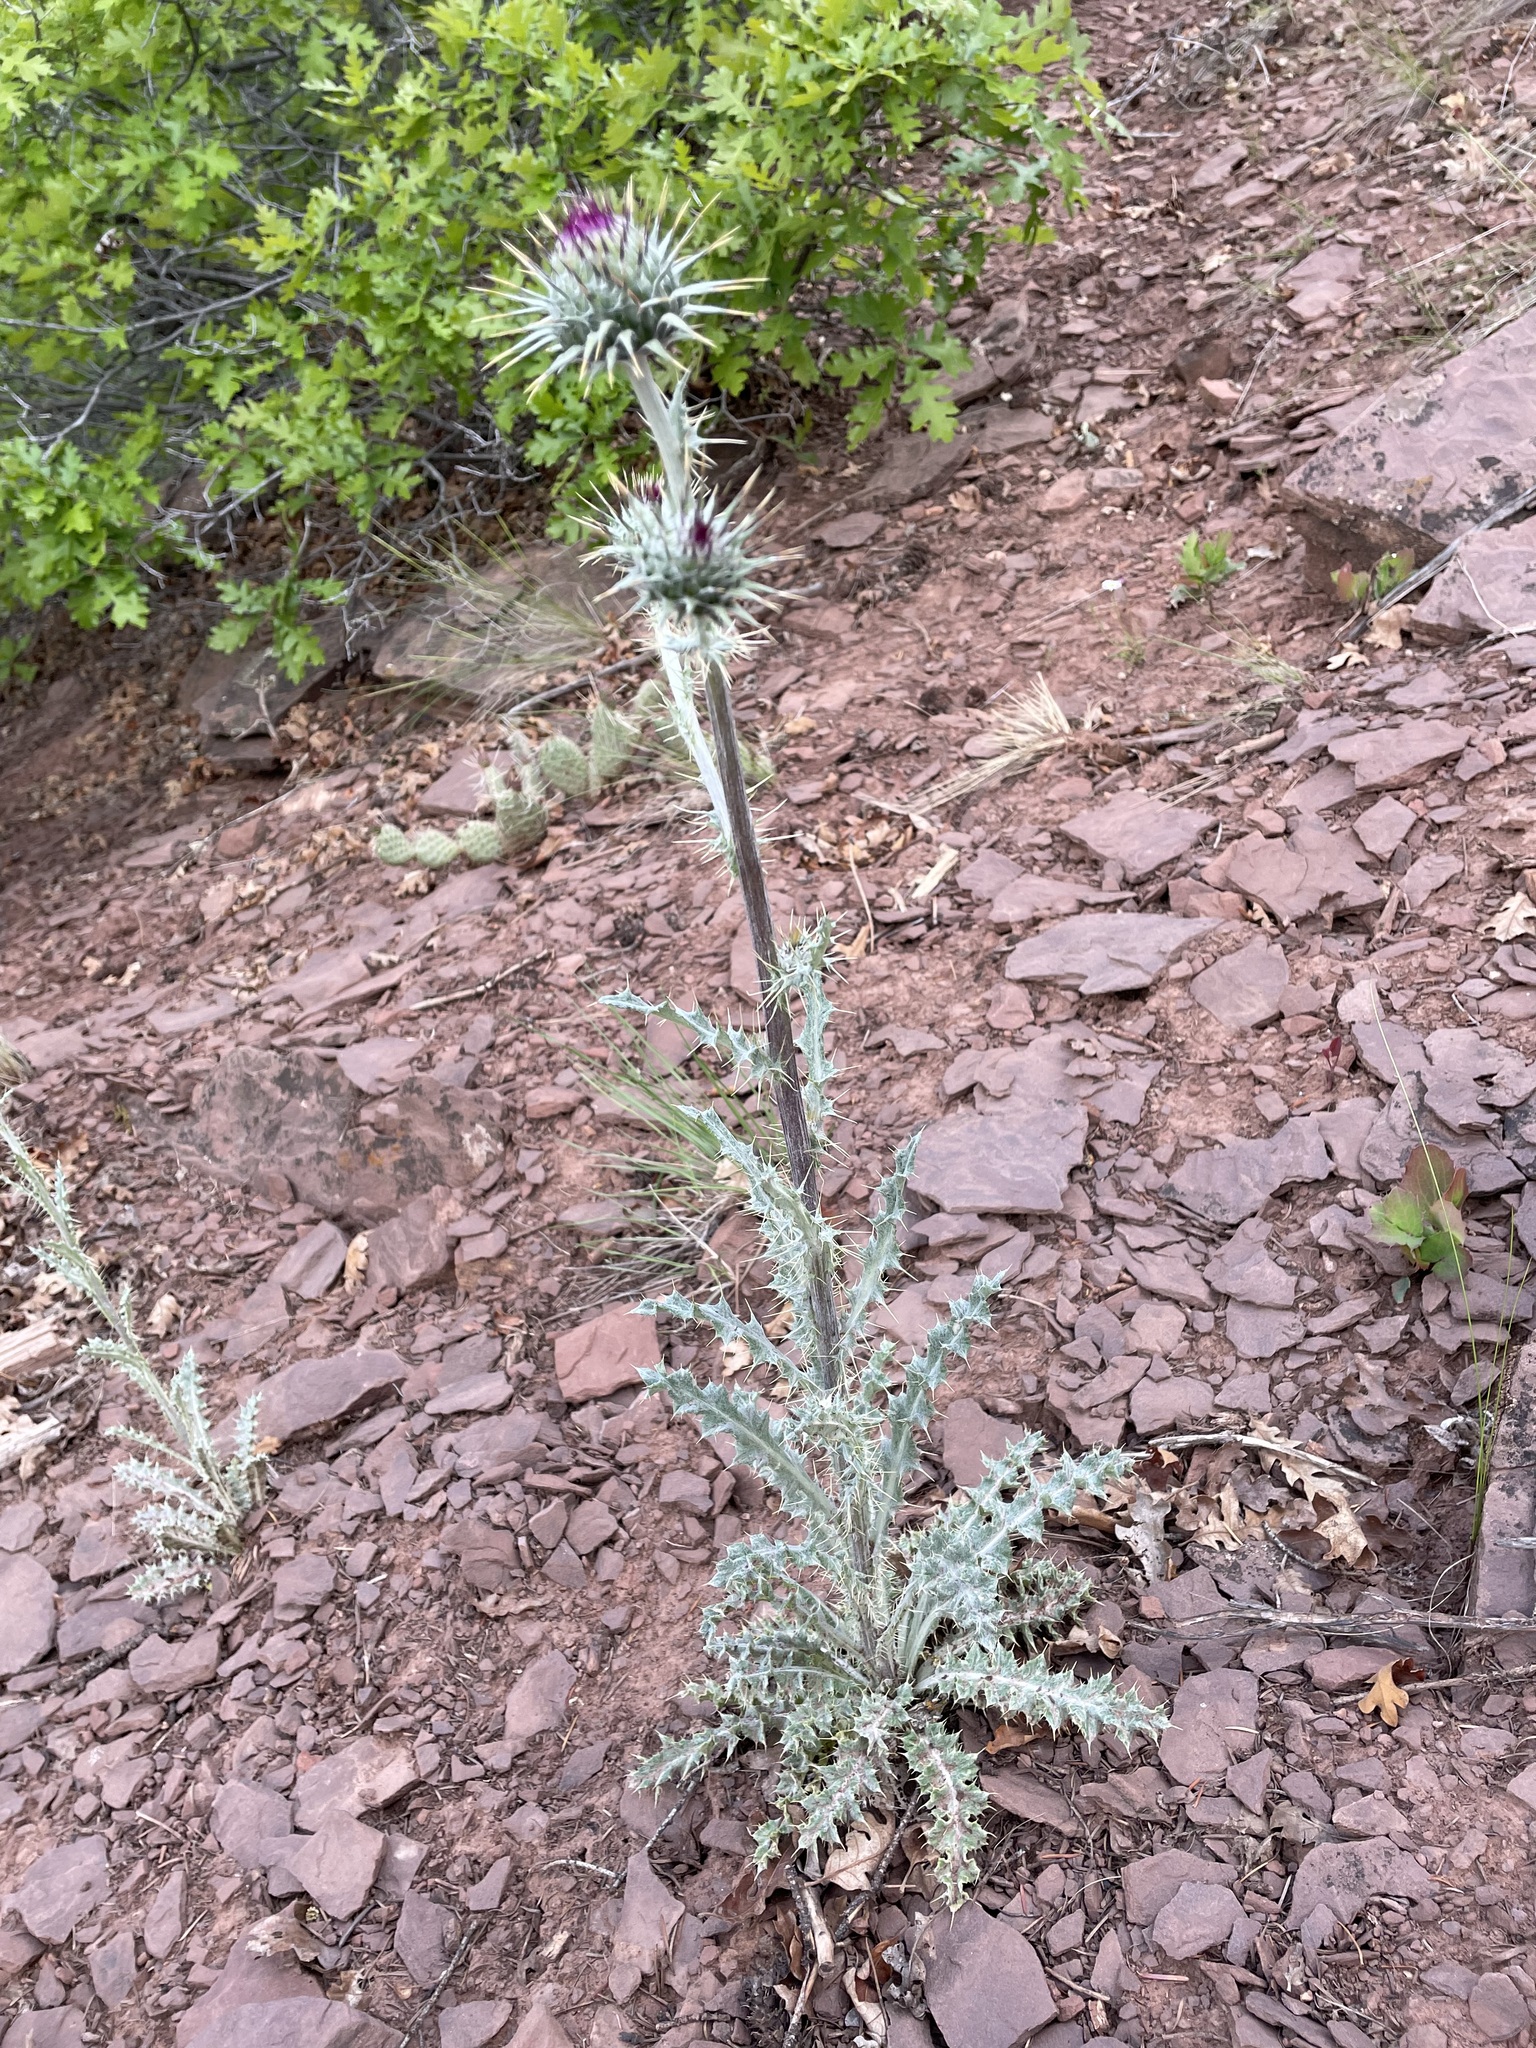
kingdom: Plantae
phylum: Tracheophyta
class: Magnoliopsida
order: Asterales
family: Asteraceae
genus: Cirsium
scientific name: Cirsium neomexicanum
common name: New mexico thistle
